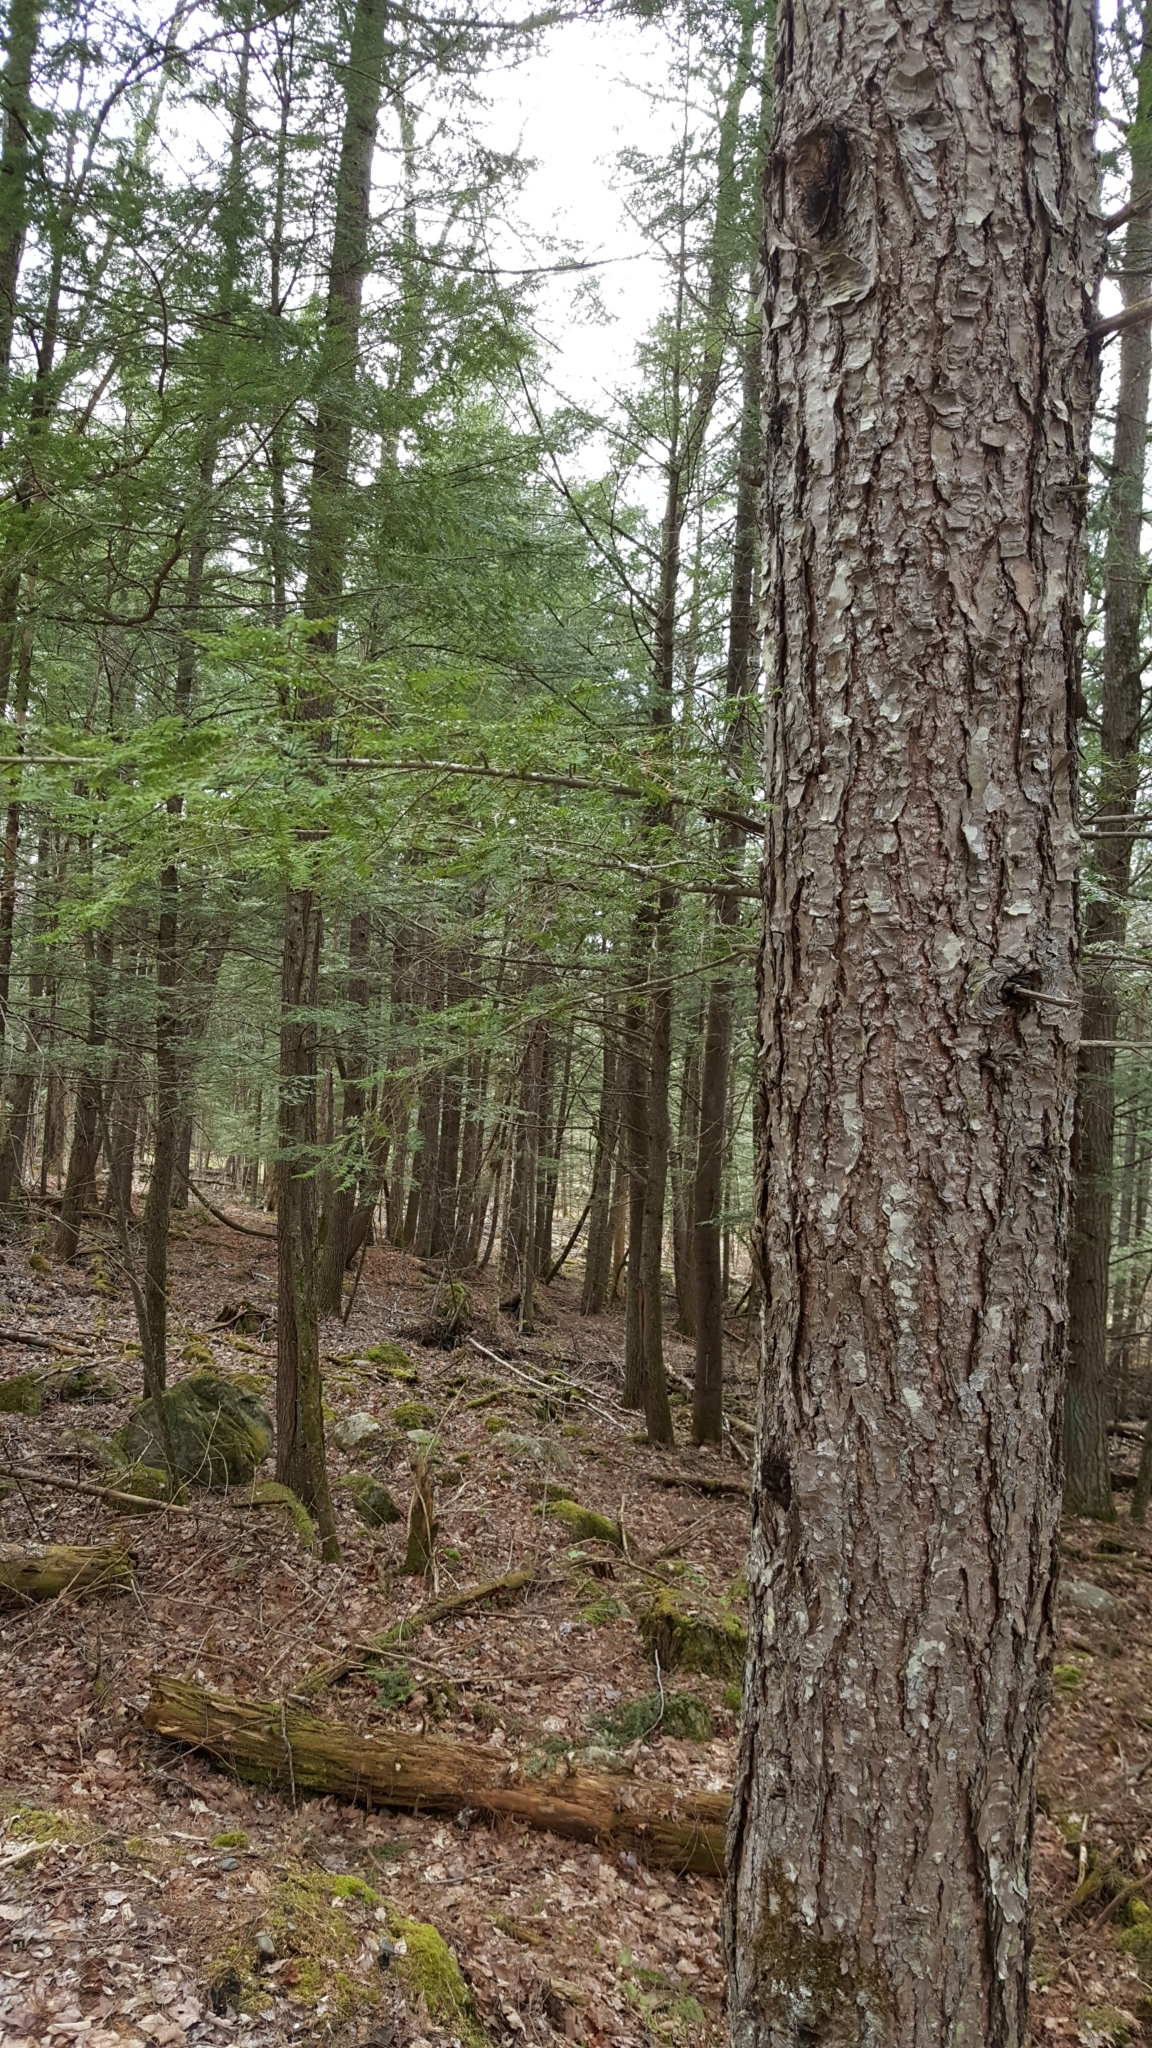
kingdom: Plantae
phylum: Tracheophyta
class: Pinopsida
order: Pinales
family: Pinaceae
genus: Tsuga
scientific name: Tsuga canadensis
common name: Eastern hemlock
